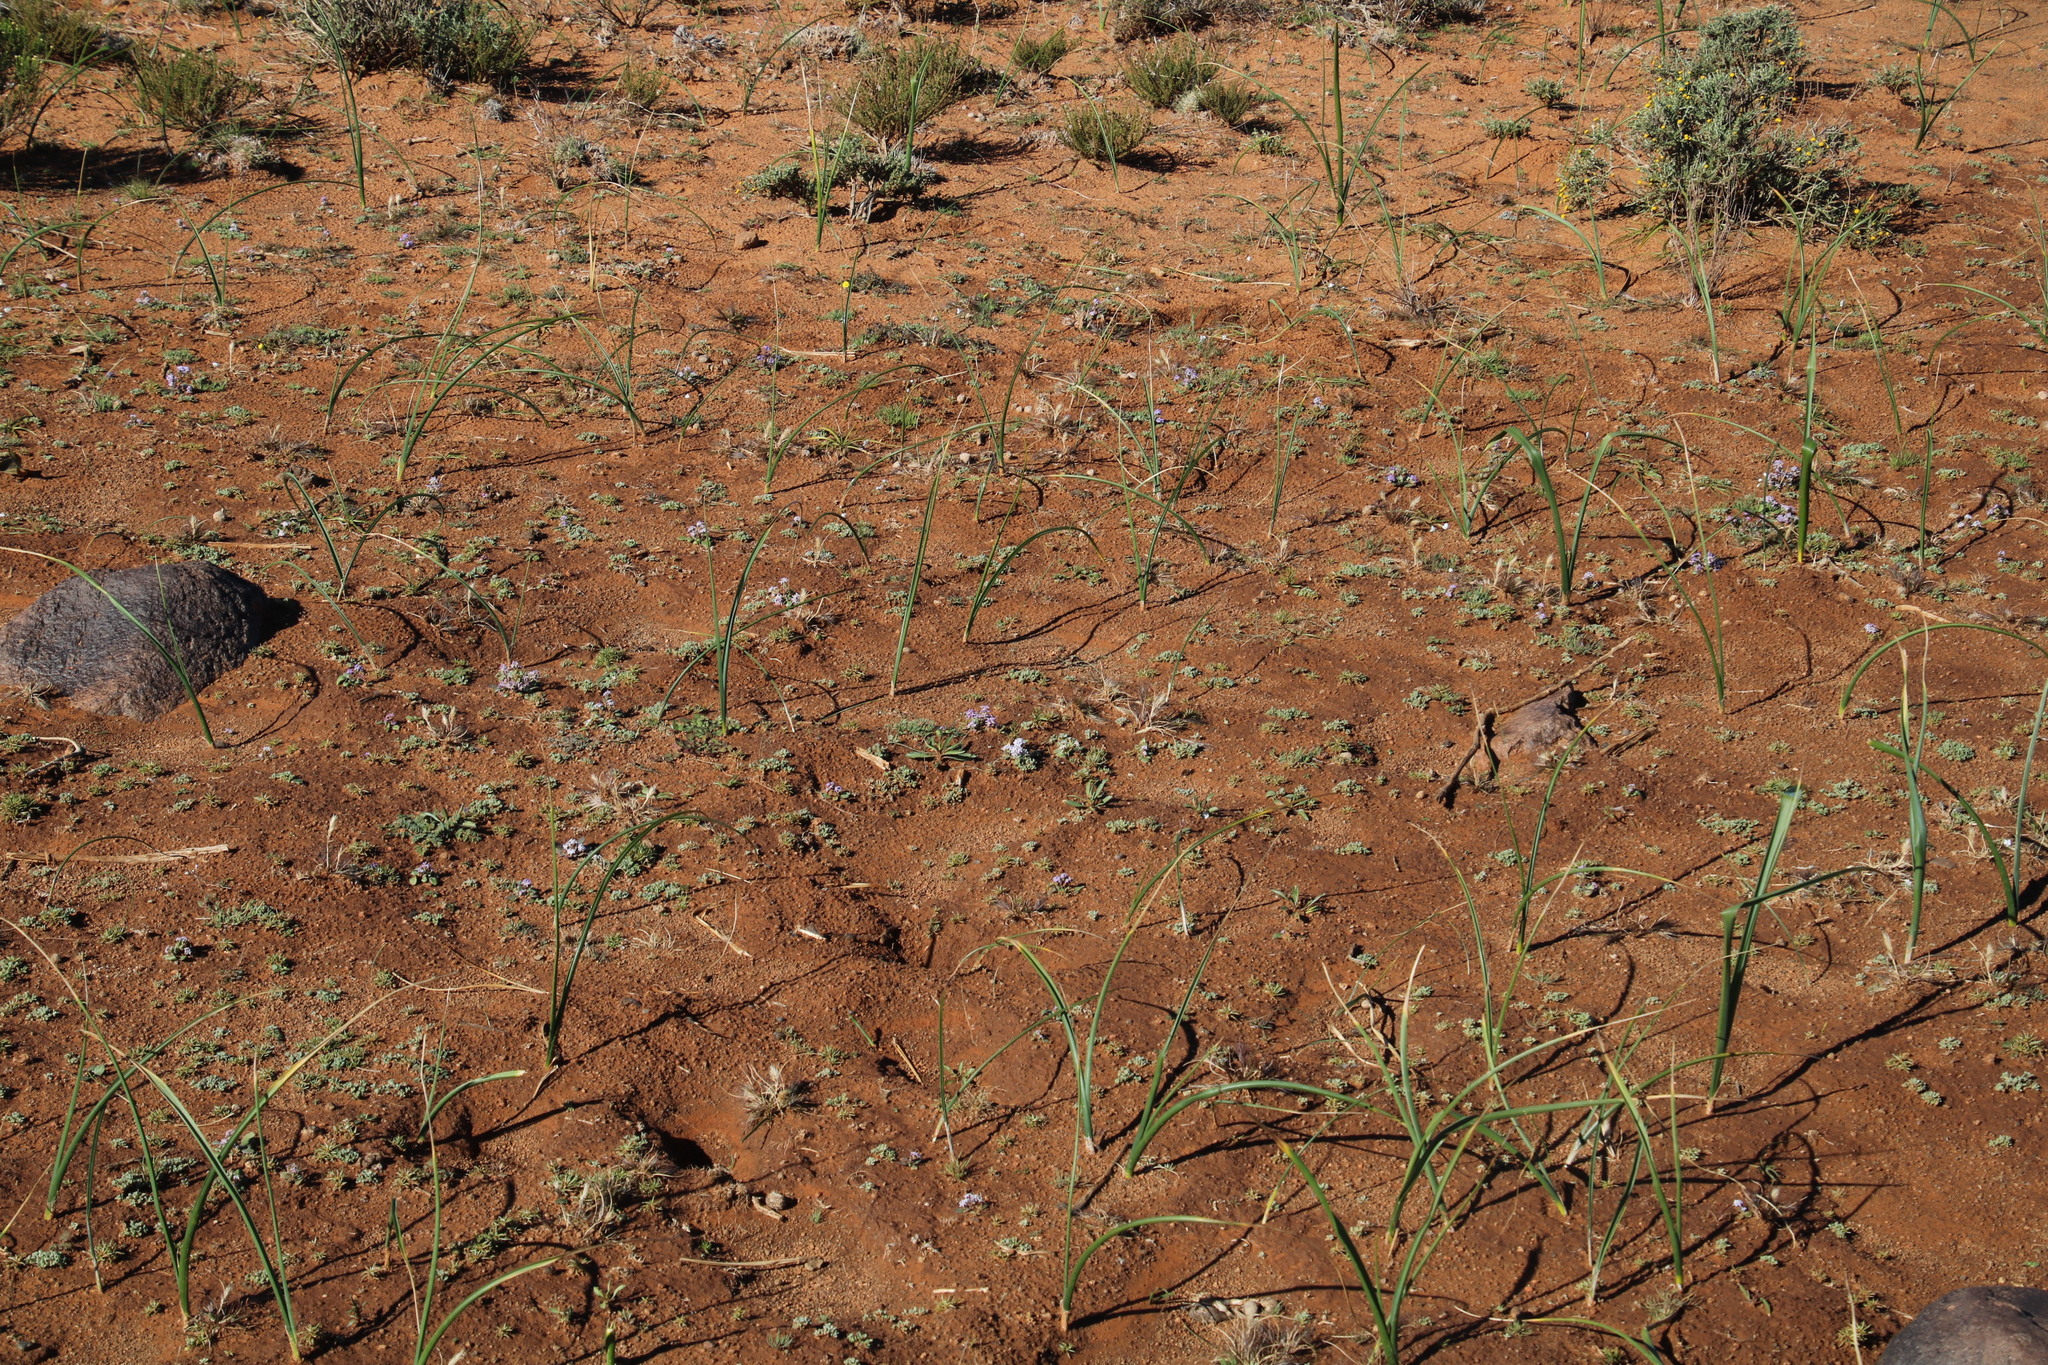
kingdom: Plantae
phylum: Tracheophyta
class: Magnoliopsida
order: Asterales
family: Asteraceae
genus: Ursinia
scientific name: Ursinia nana
